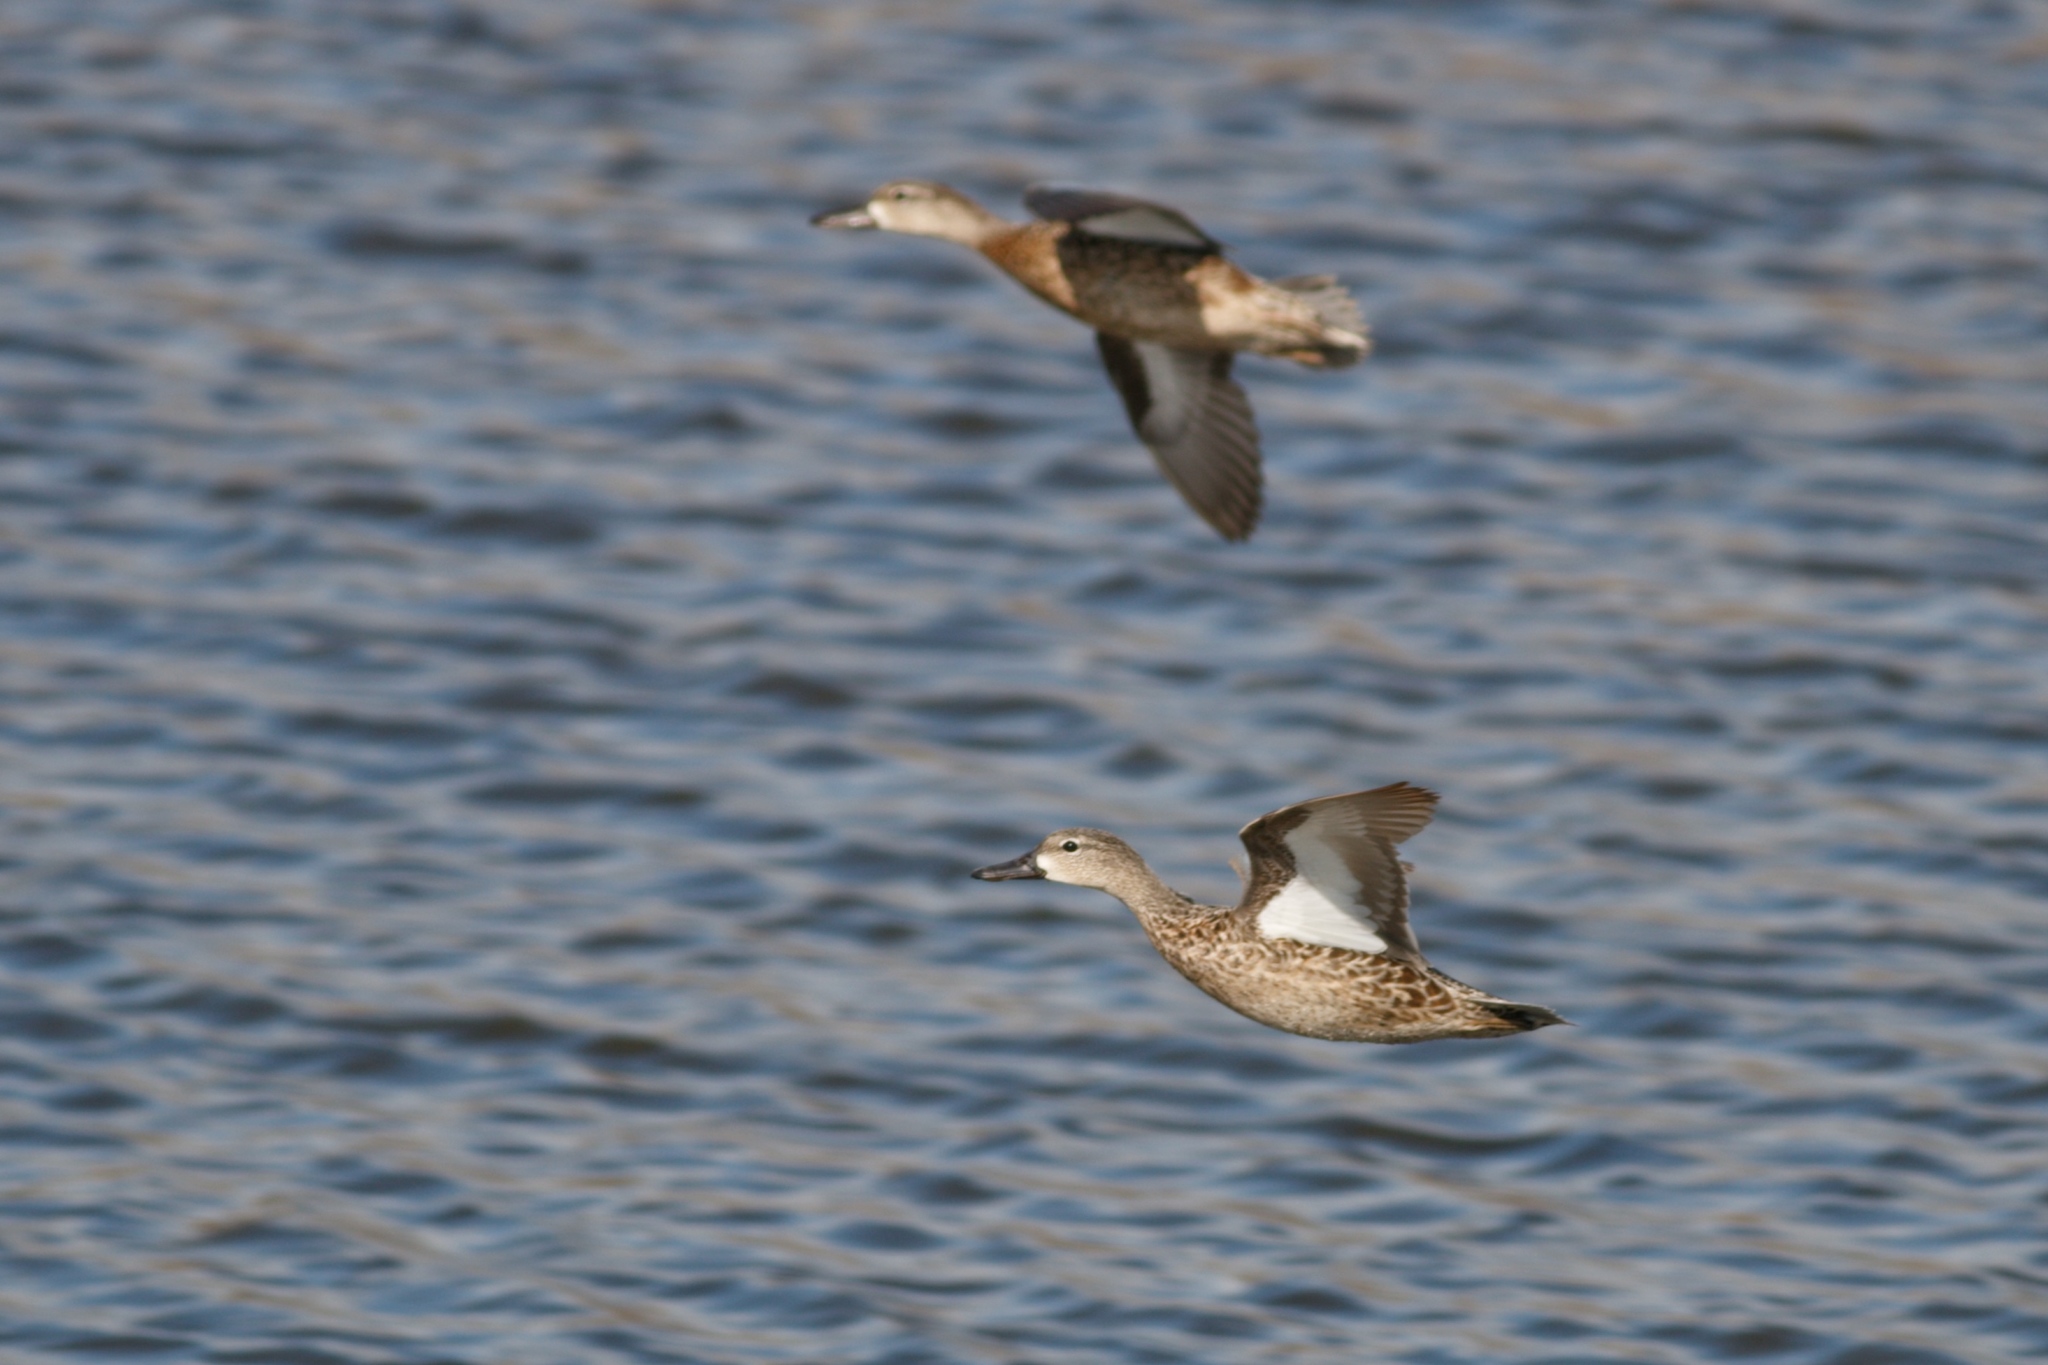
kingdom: Animalia
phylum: Chordata
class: Aves
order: Anseriformes
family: Anatidae
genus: Spatula
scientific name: Spatula discors
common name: Blue-winged teal
